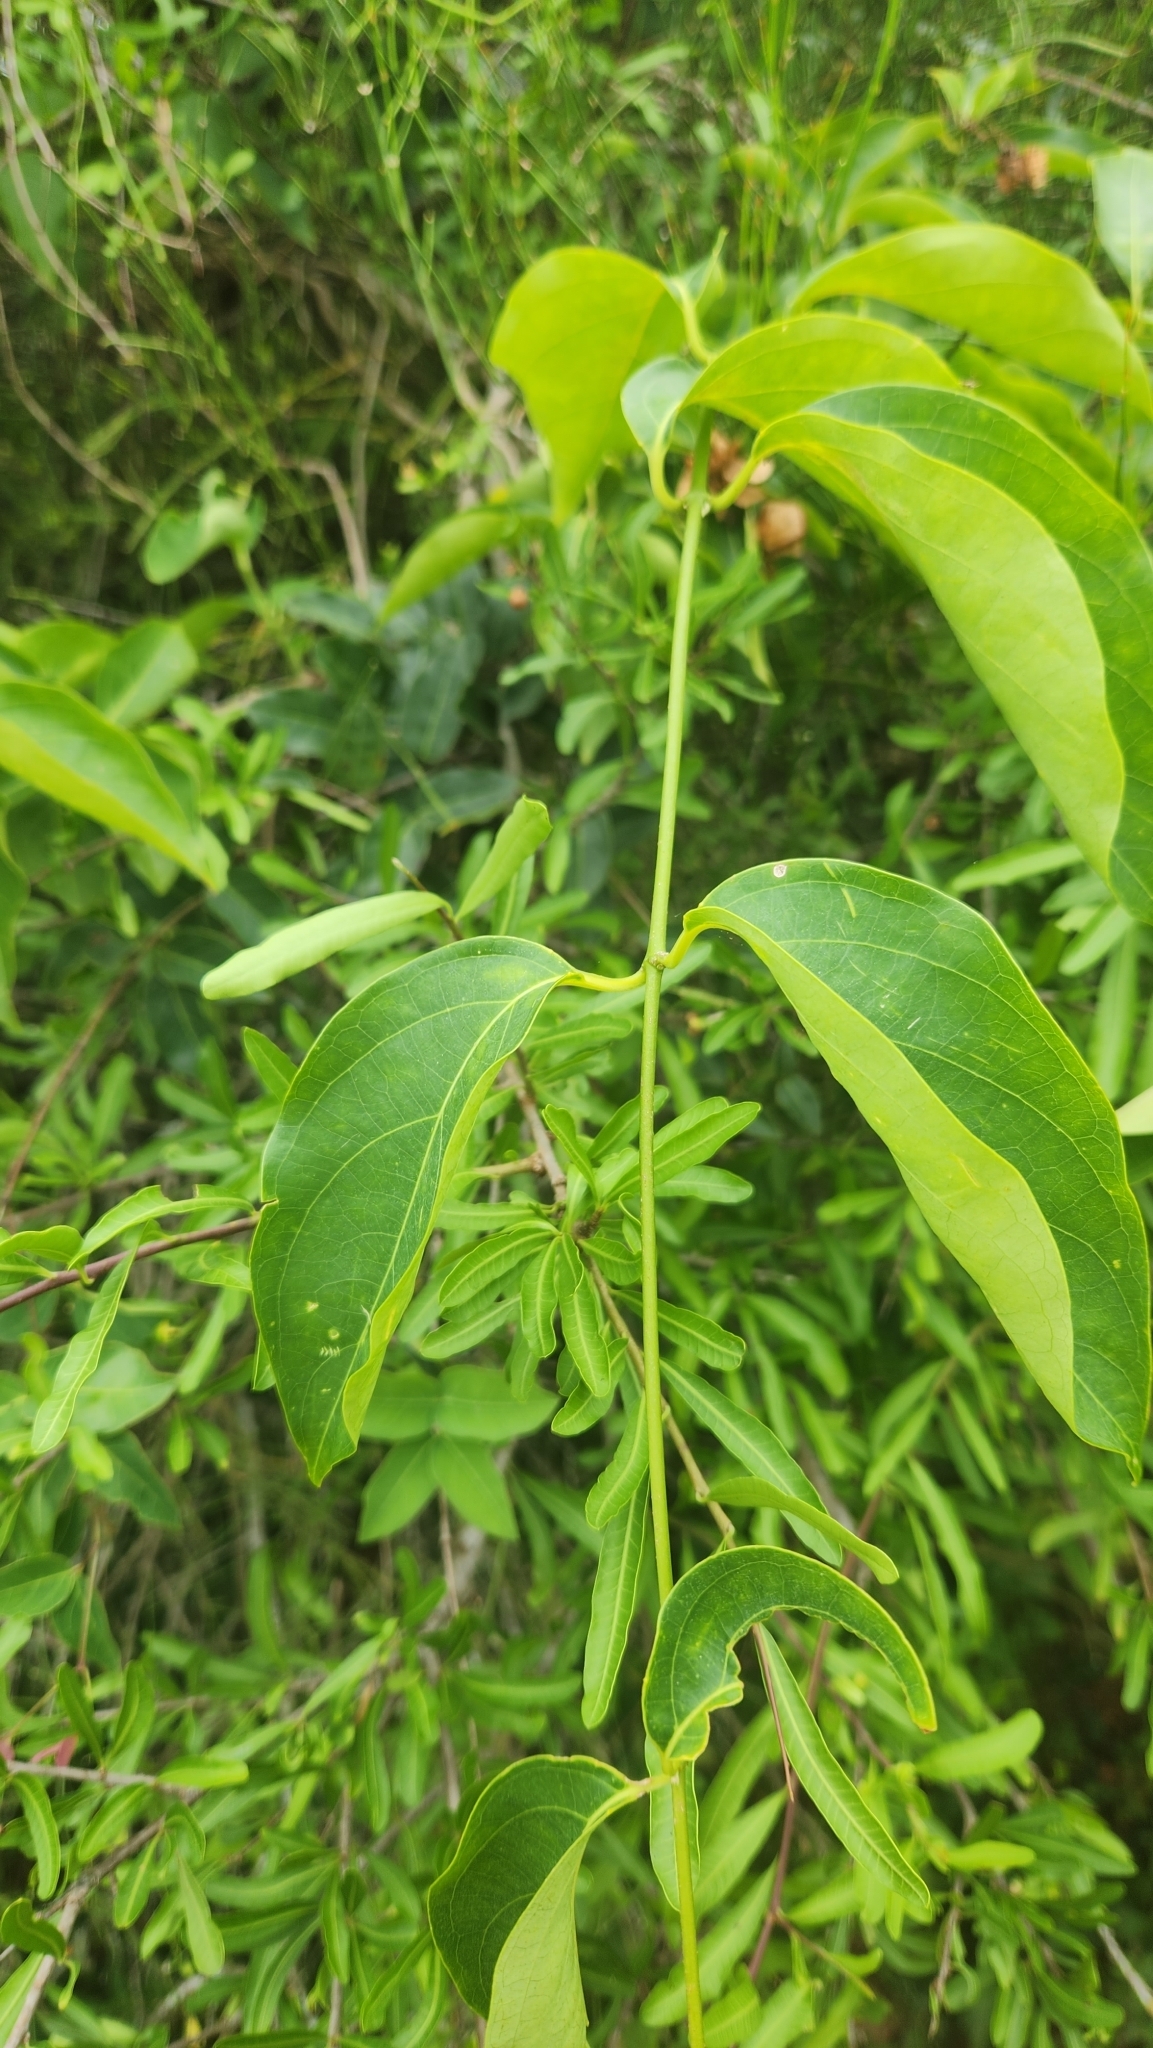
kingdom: Plantae
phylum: Tracheophyta
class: Magnoliopsida
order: Malpighiales
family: Malpighiaceae
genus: Callaeum
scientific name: Callaeum psilophyllum
